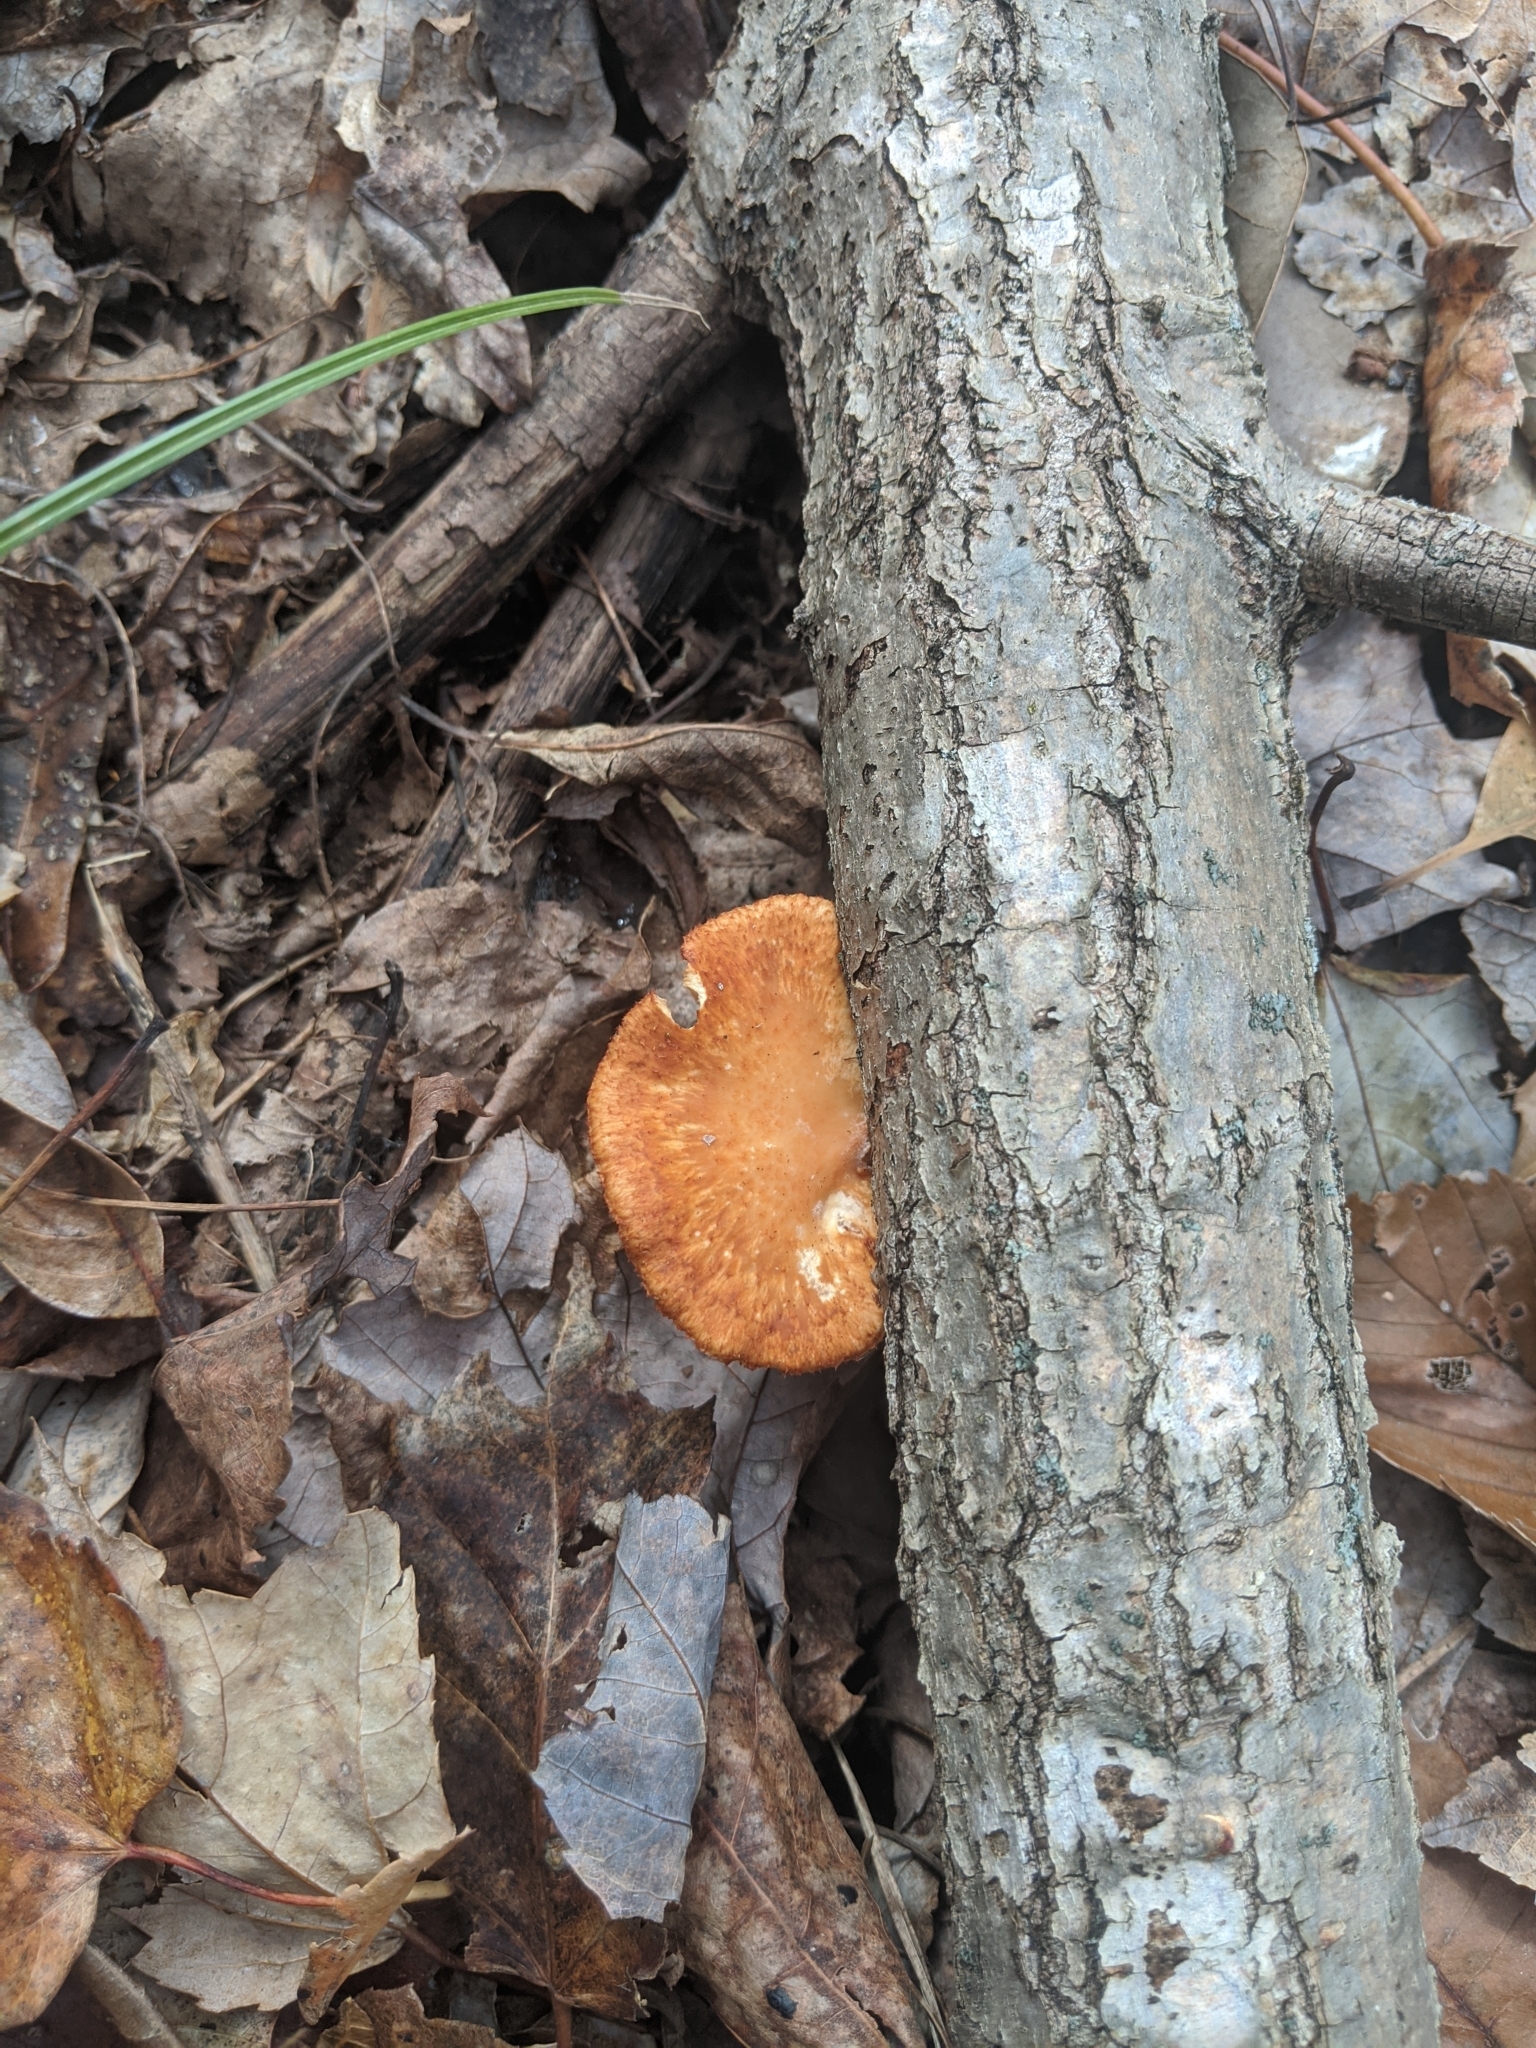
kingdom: Fungi
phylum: Basidiomycota
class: Agaricomycetes
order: Polyporales
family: Polyporaceae
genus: Neofavolus
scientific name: Neofavolus alveolaris
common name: Hexagonal-pored polypore
